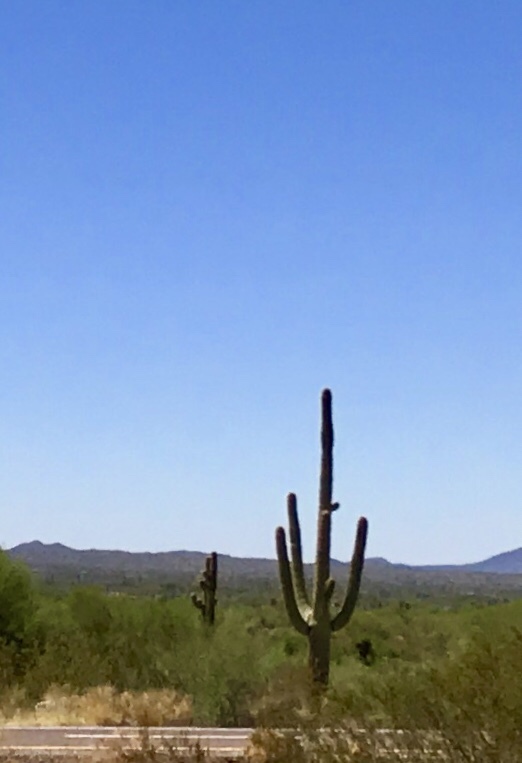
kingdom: Plantae
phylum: Tracheophyta
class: Magnoliopsida
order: Caryophyllales
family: Cactaceae
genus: Carnegiea
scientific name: Carnegiea gigantea
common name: Saguaro
